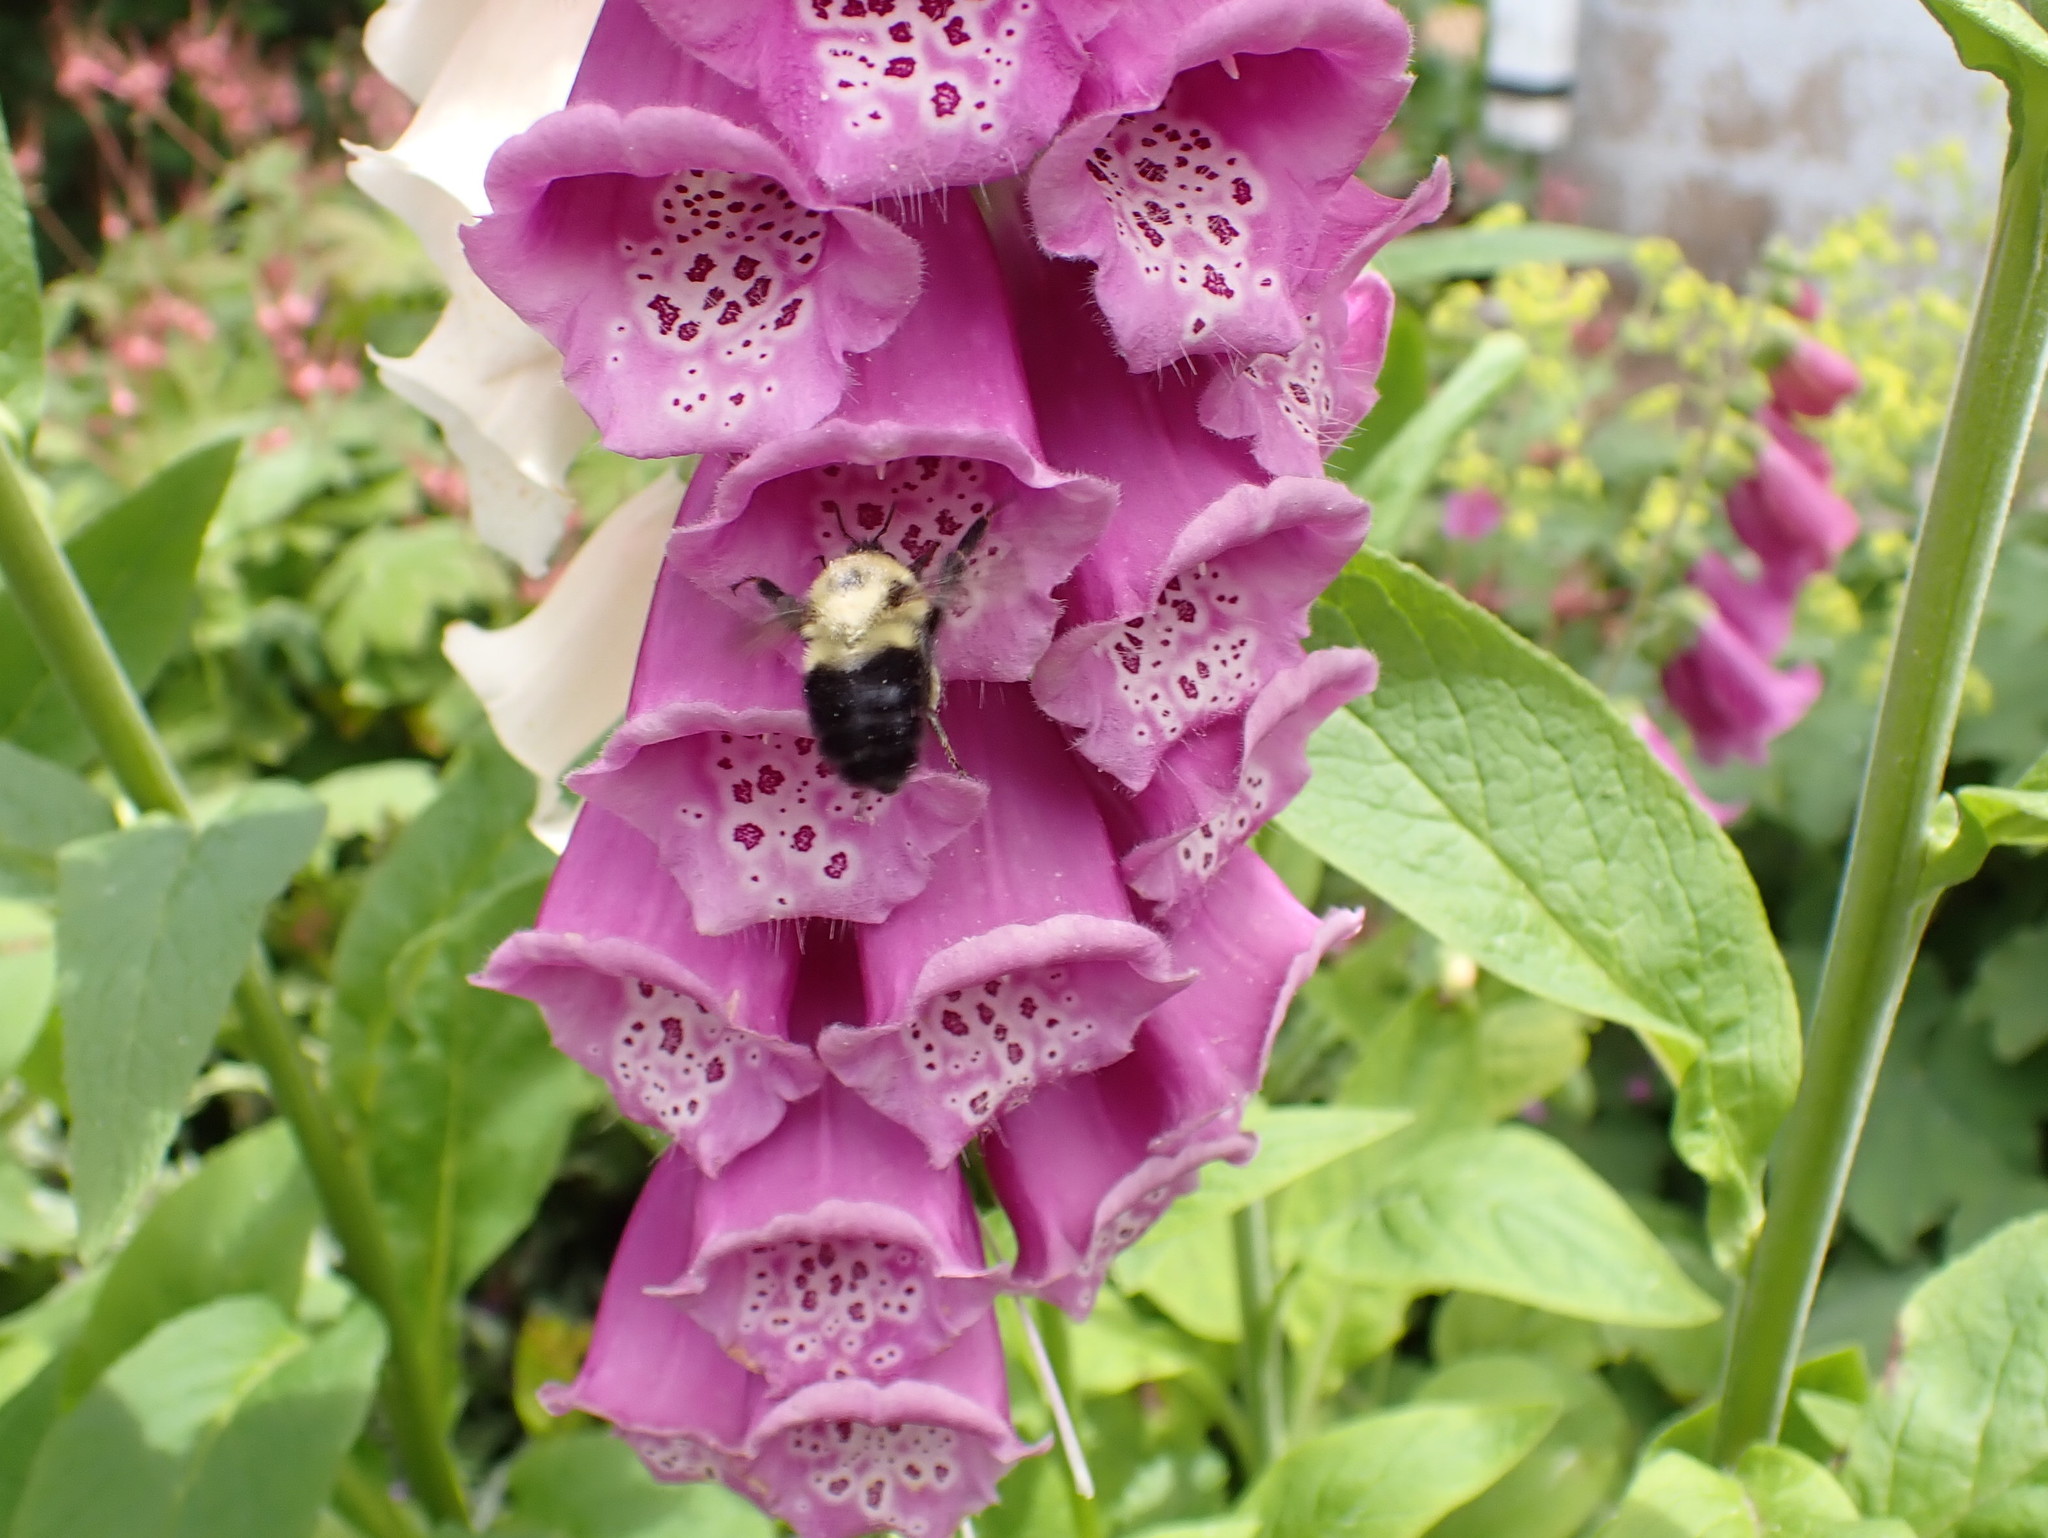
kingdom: Animalia
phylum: Arthropoda
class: Insecta
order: Hymenoptera
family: Apidae
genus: Bombus
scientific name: Bombus bimaculatus
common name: Two-spotted bumble bee
